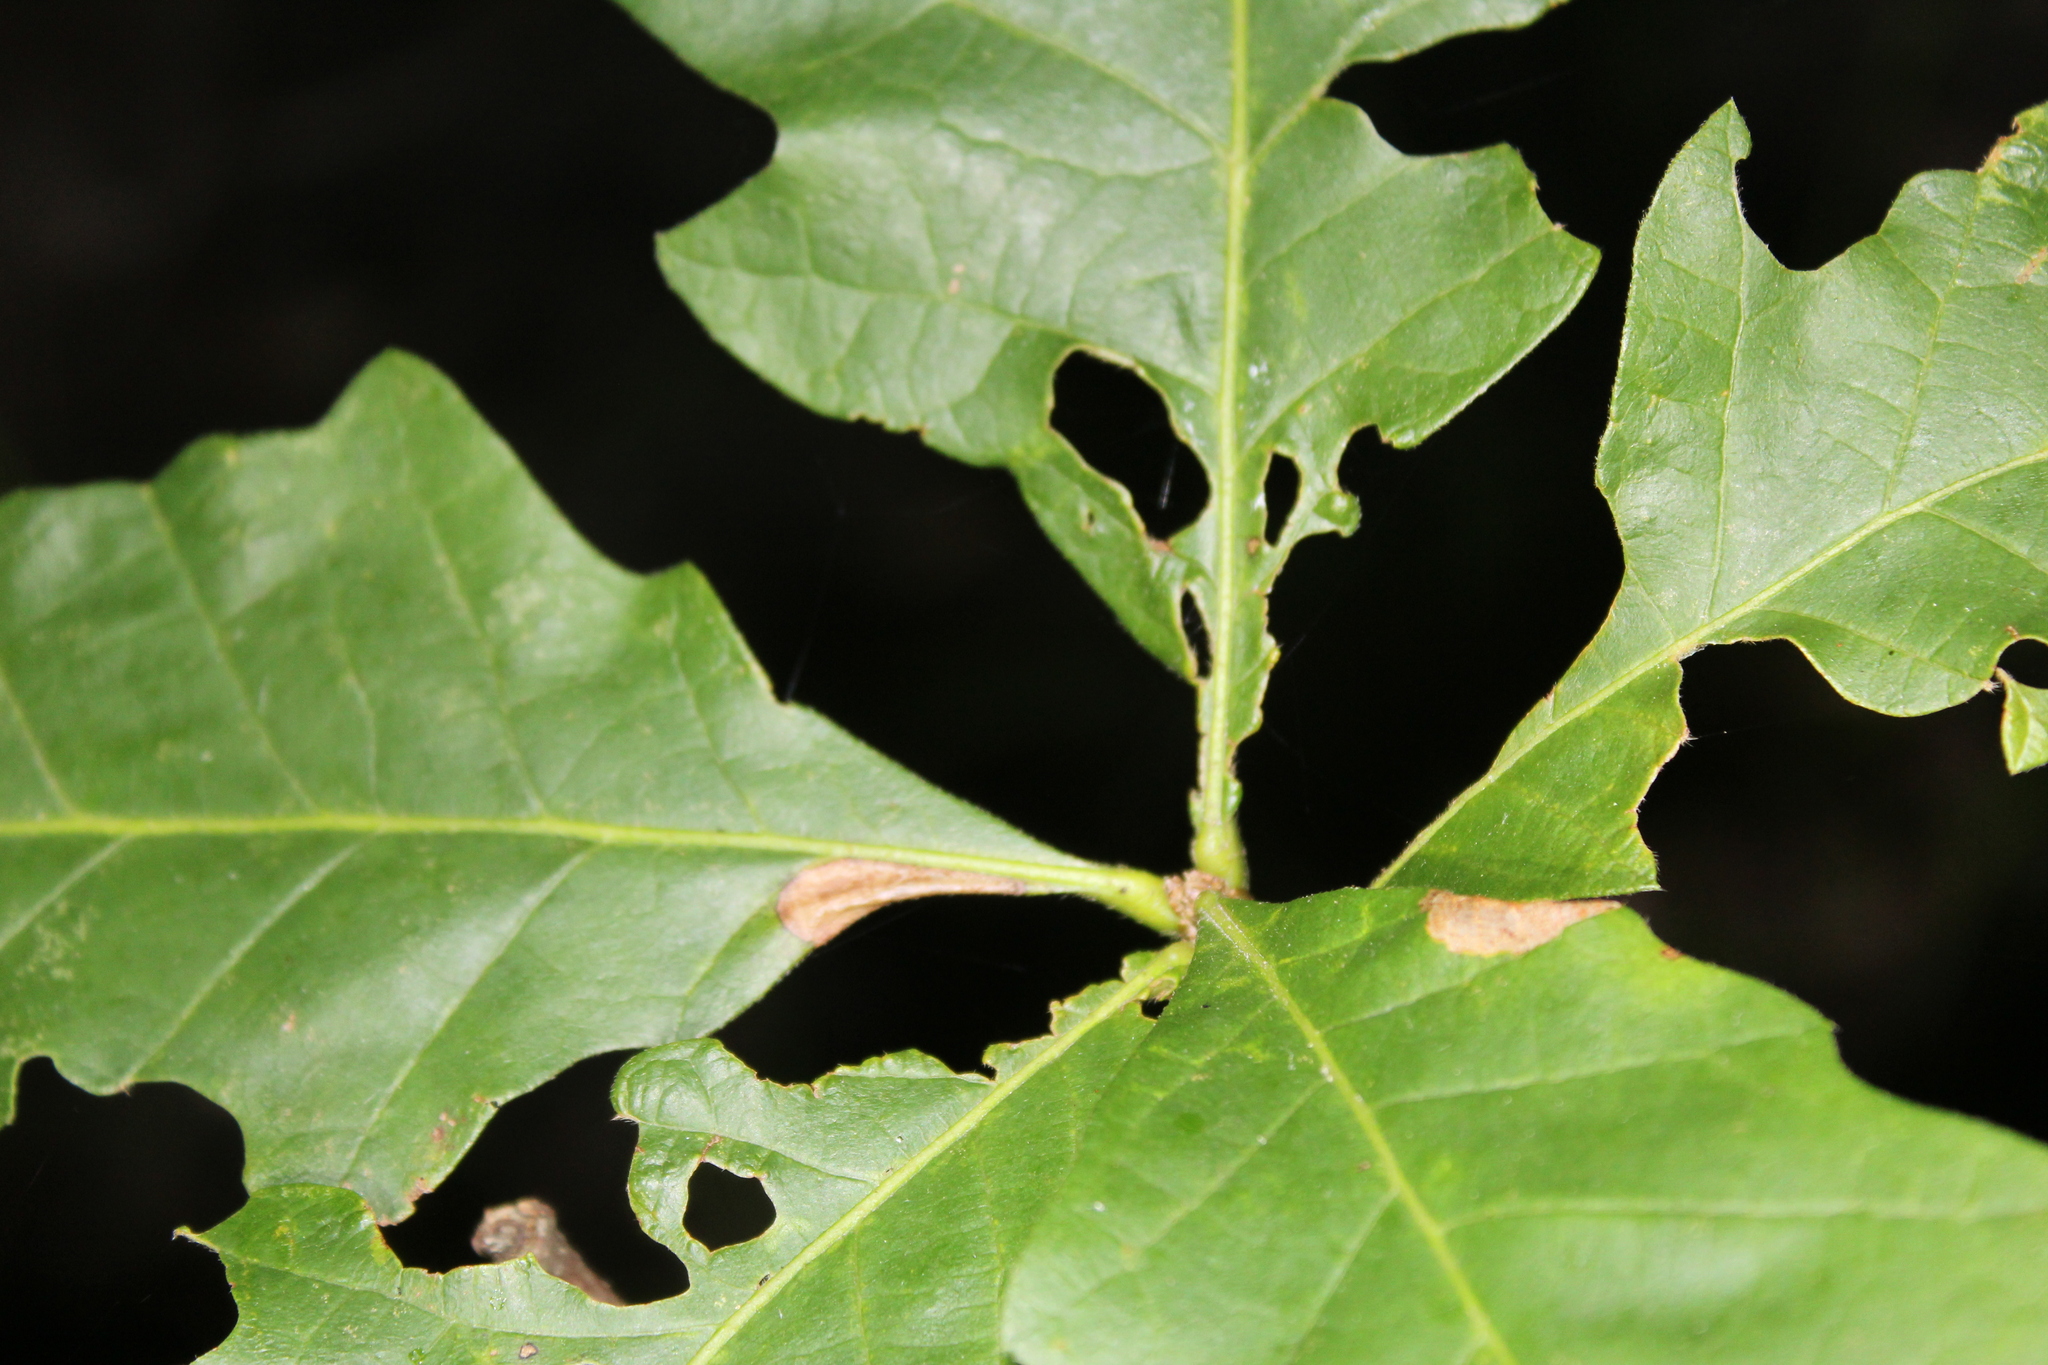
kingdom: Animalia
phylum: Arthropoda
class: Insecta
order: Lepidoptera
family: Gracillariidae
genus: Phyllonorycter
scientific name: Phyllonorycter
